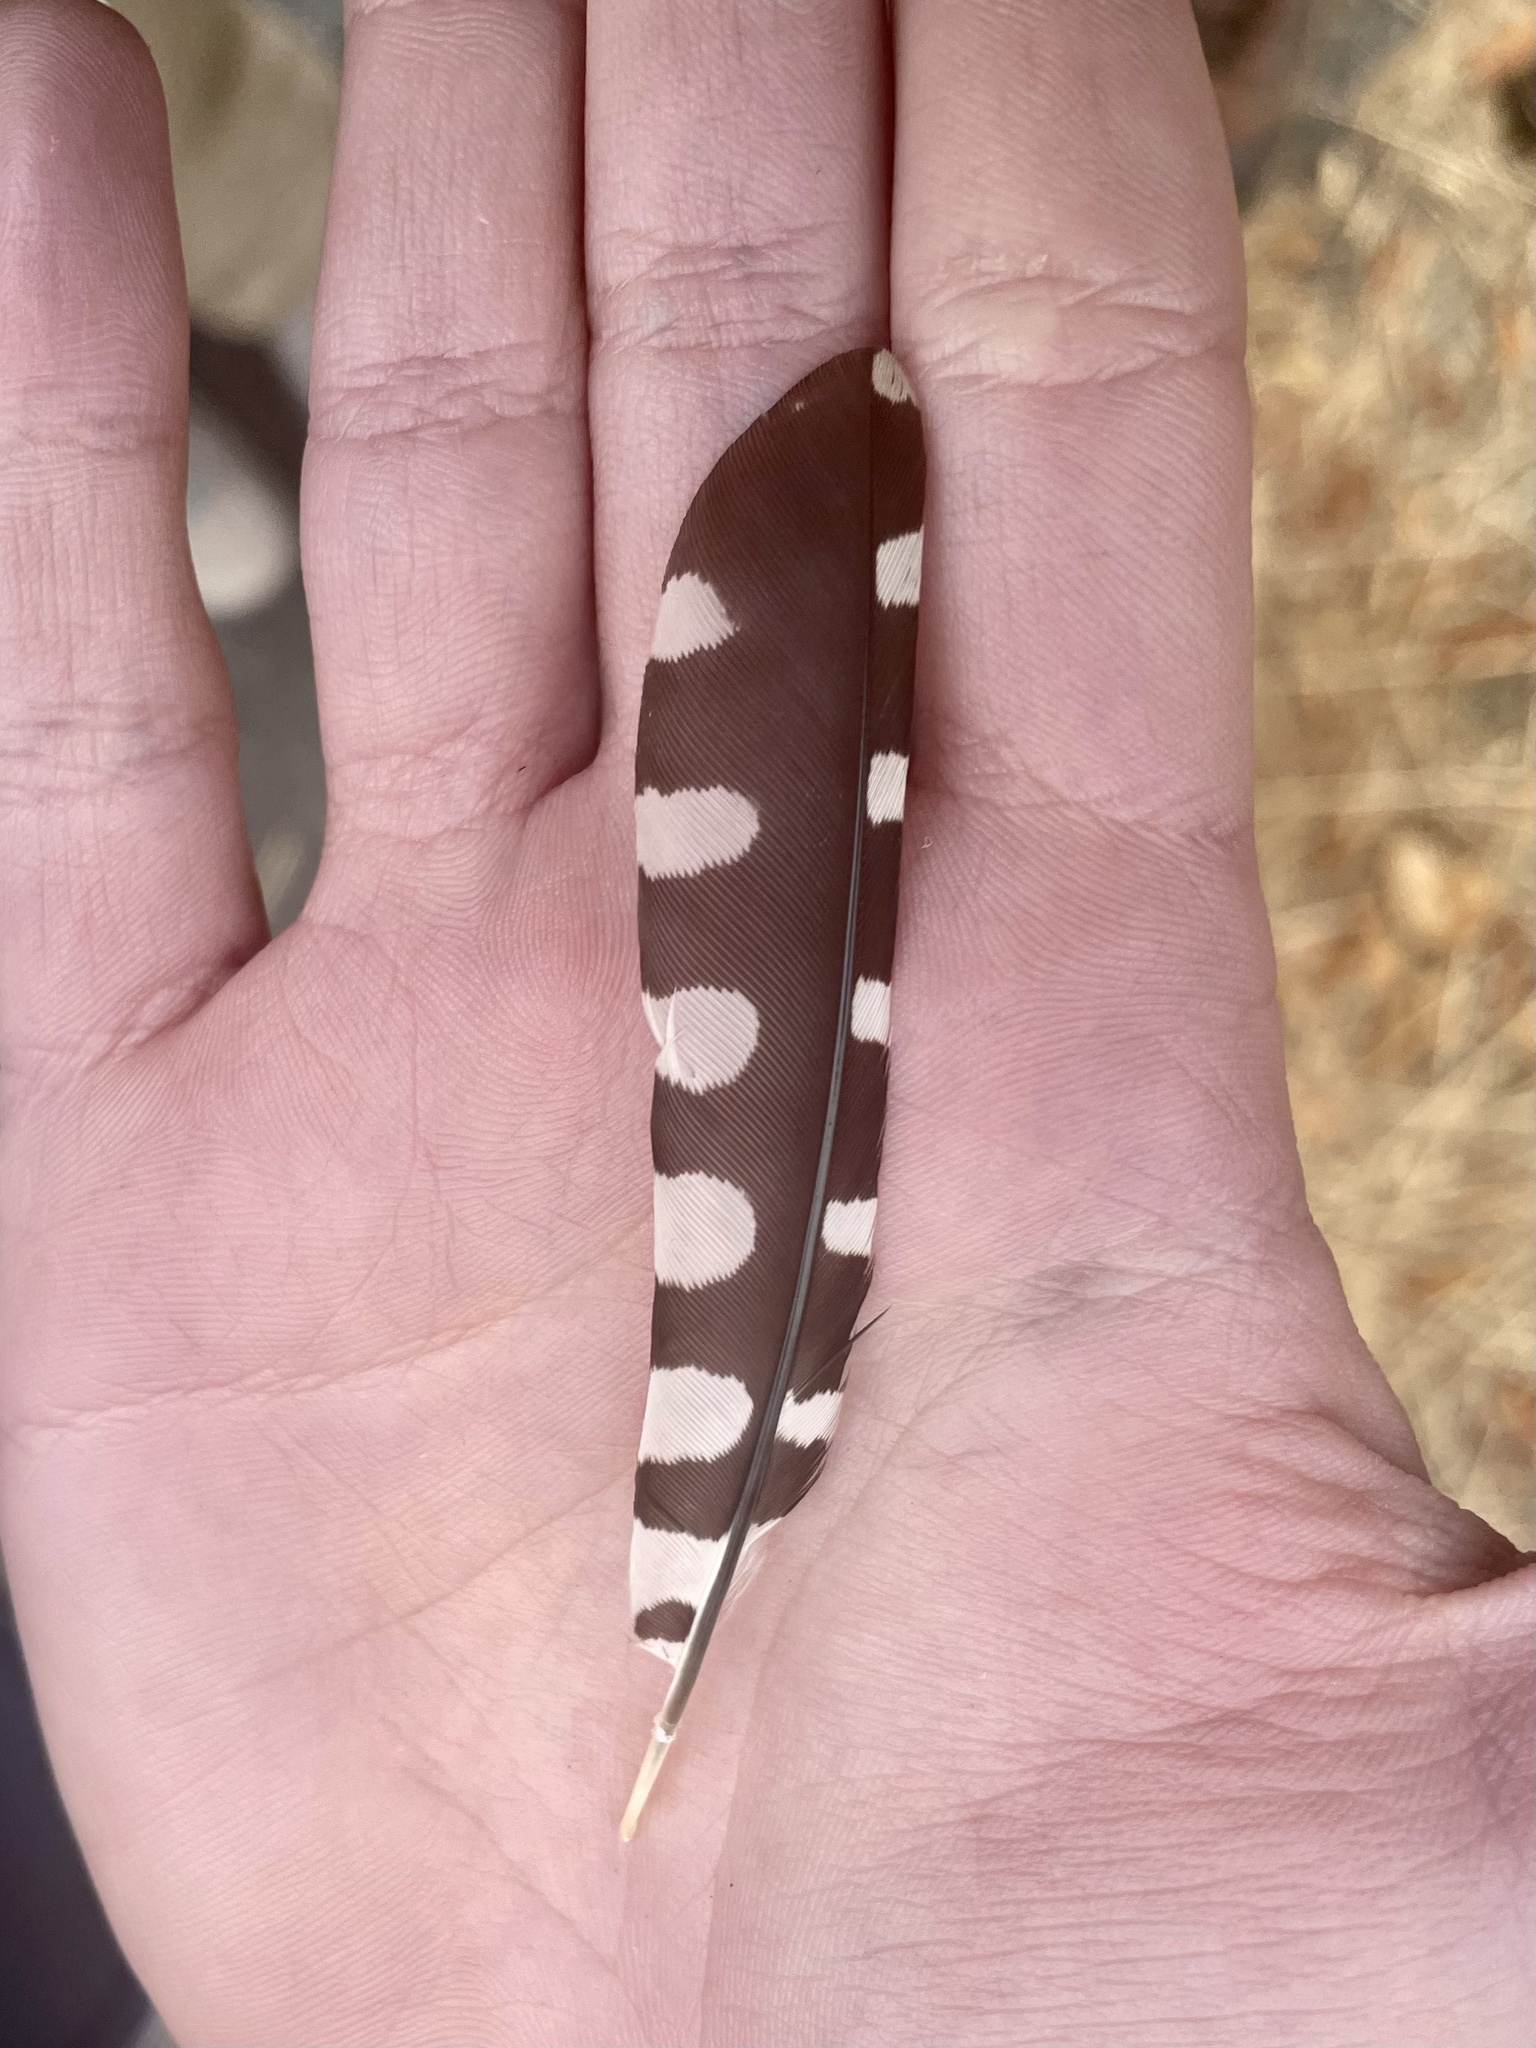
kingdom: Animalia
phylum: Chordata
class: Aves
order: Piciformes
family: Picidae
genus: Dryobates
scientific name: Dryobates nuttallii
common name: Nuttall's woodpecker
